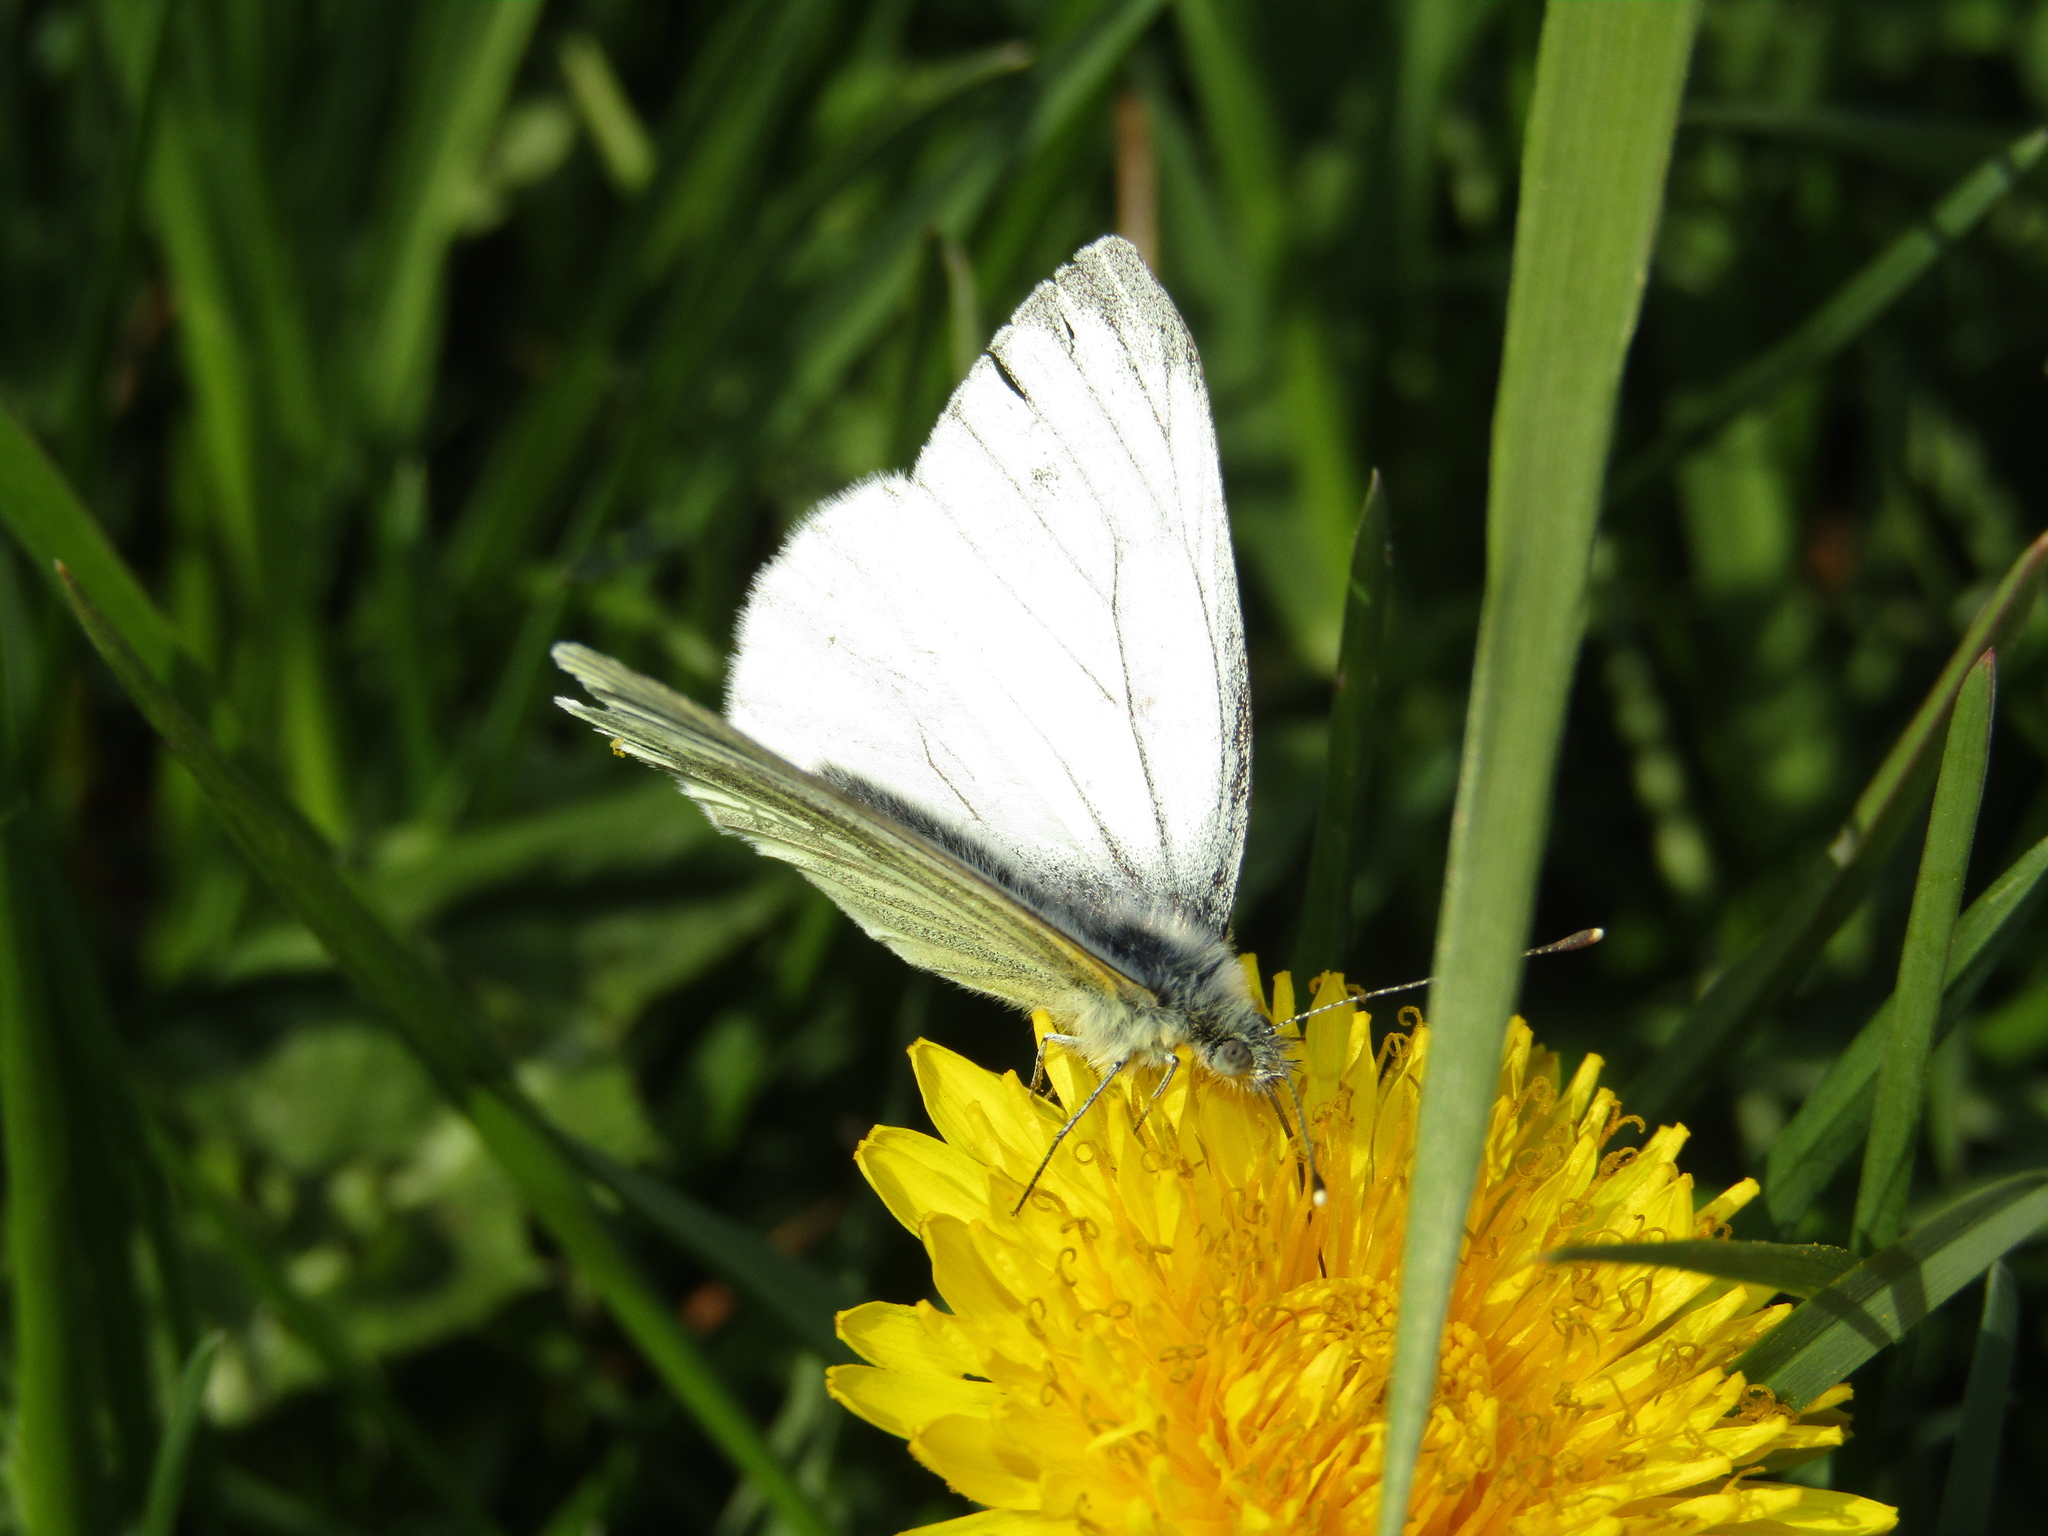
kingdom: Animalia
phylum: Arthropoda
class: Insecta
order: Lepidoptera
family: Pieridae
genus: Pieris
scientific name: Pieris napi
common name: Green-veined white
